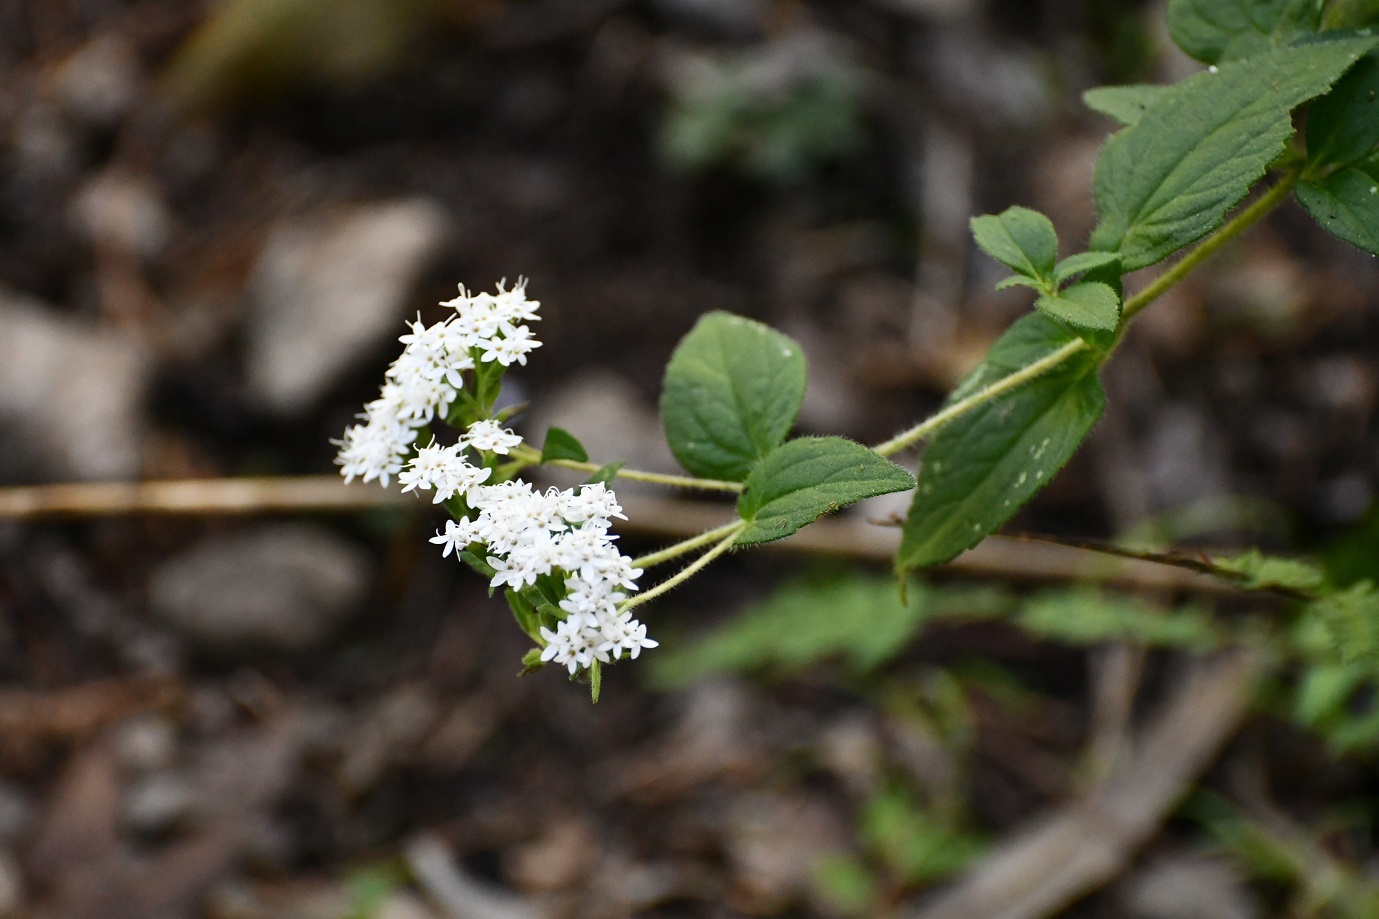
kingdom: Plantae
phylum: Tracheophyta
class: Magnoliopsida
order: Asterales
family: Asteraceae
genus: Stevia
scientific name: Stevia incognita
